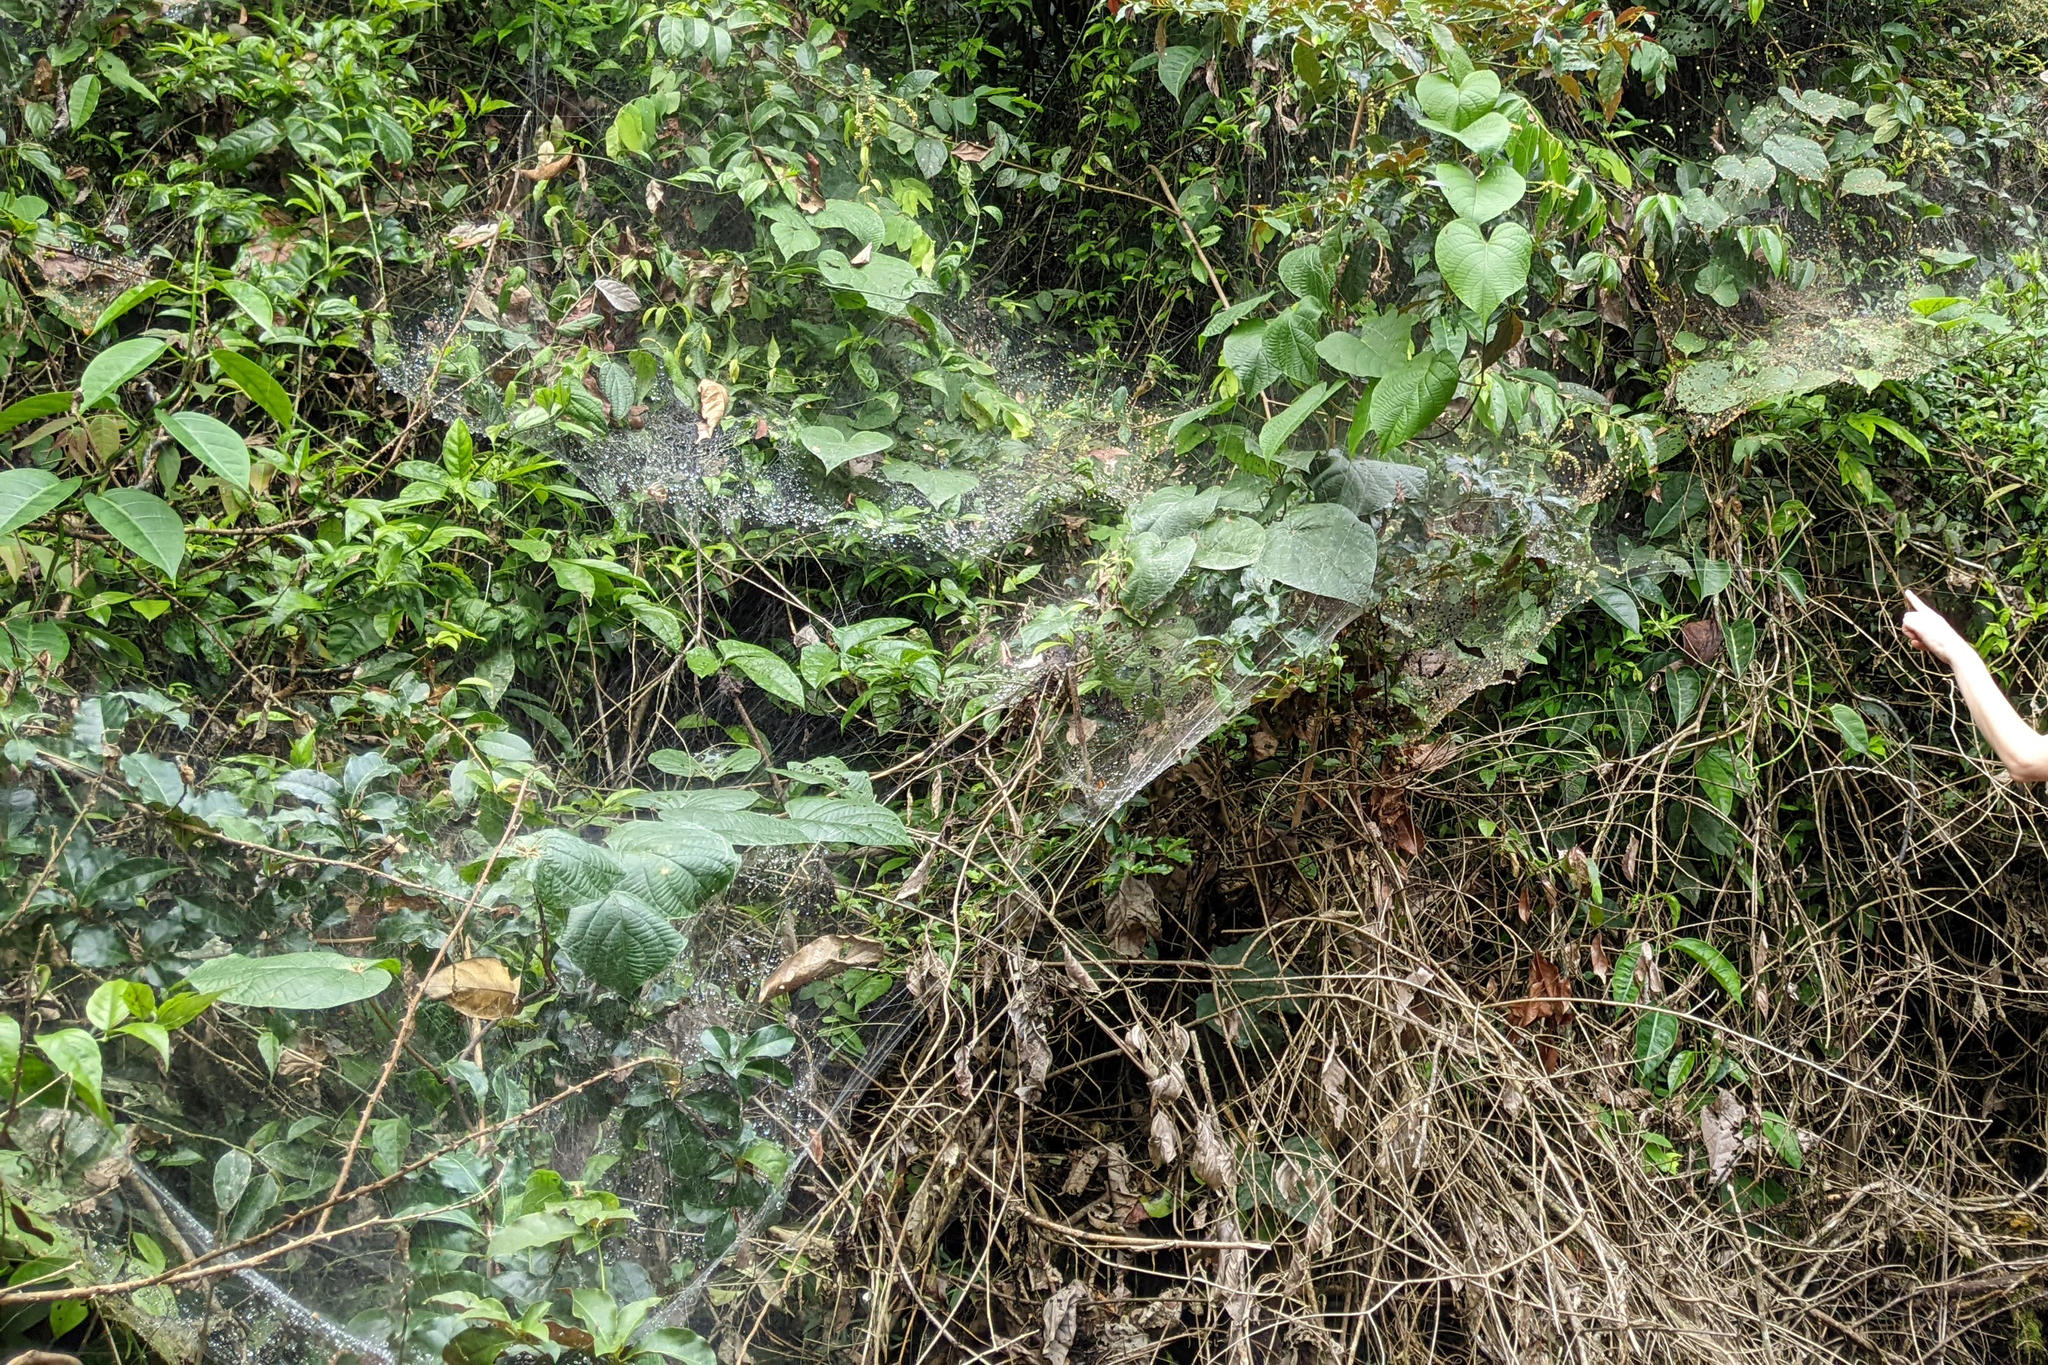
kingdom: Animalia
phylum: Arthropoda
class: Arachnida
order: Araneae
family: Theridiidae
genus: Anelosimus
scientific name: Anelosimus eximius
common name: Cobweb spiders
